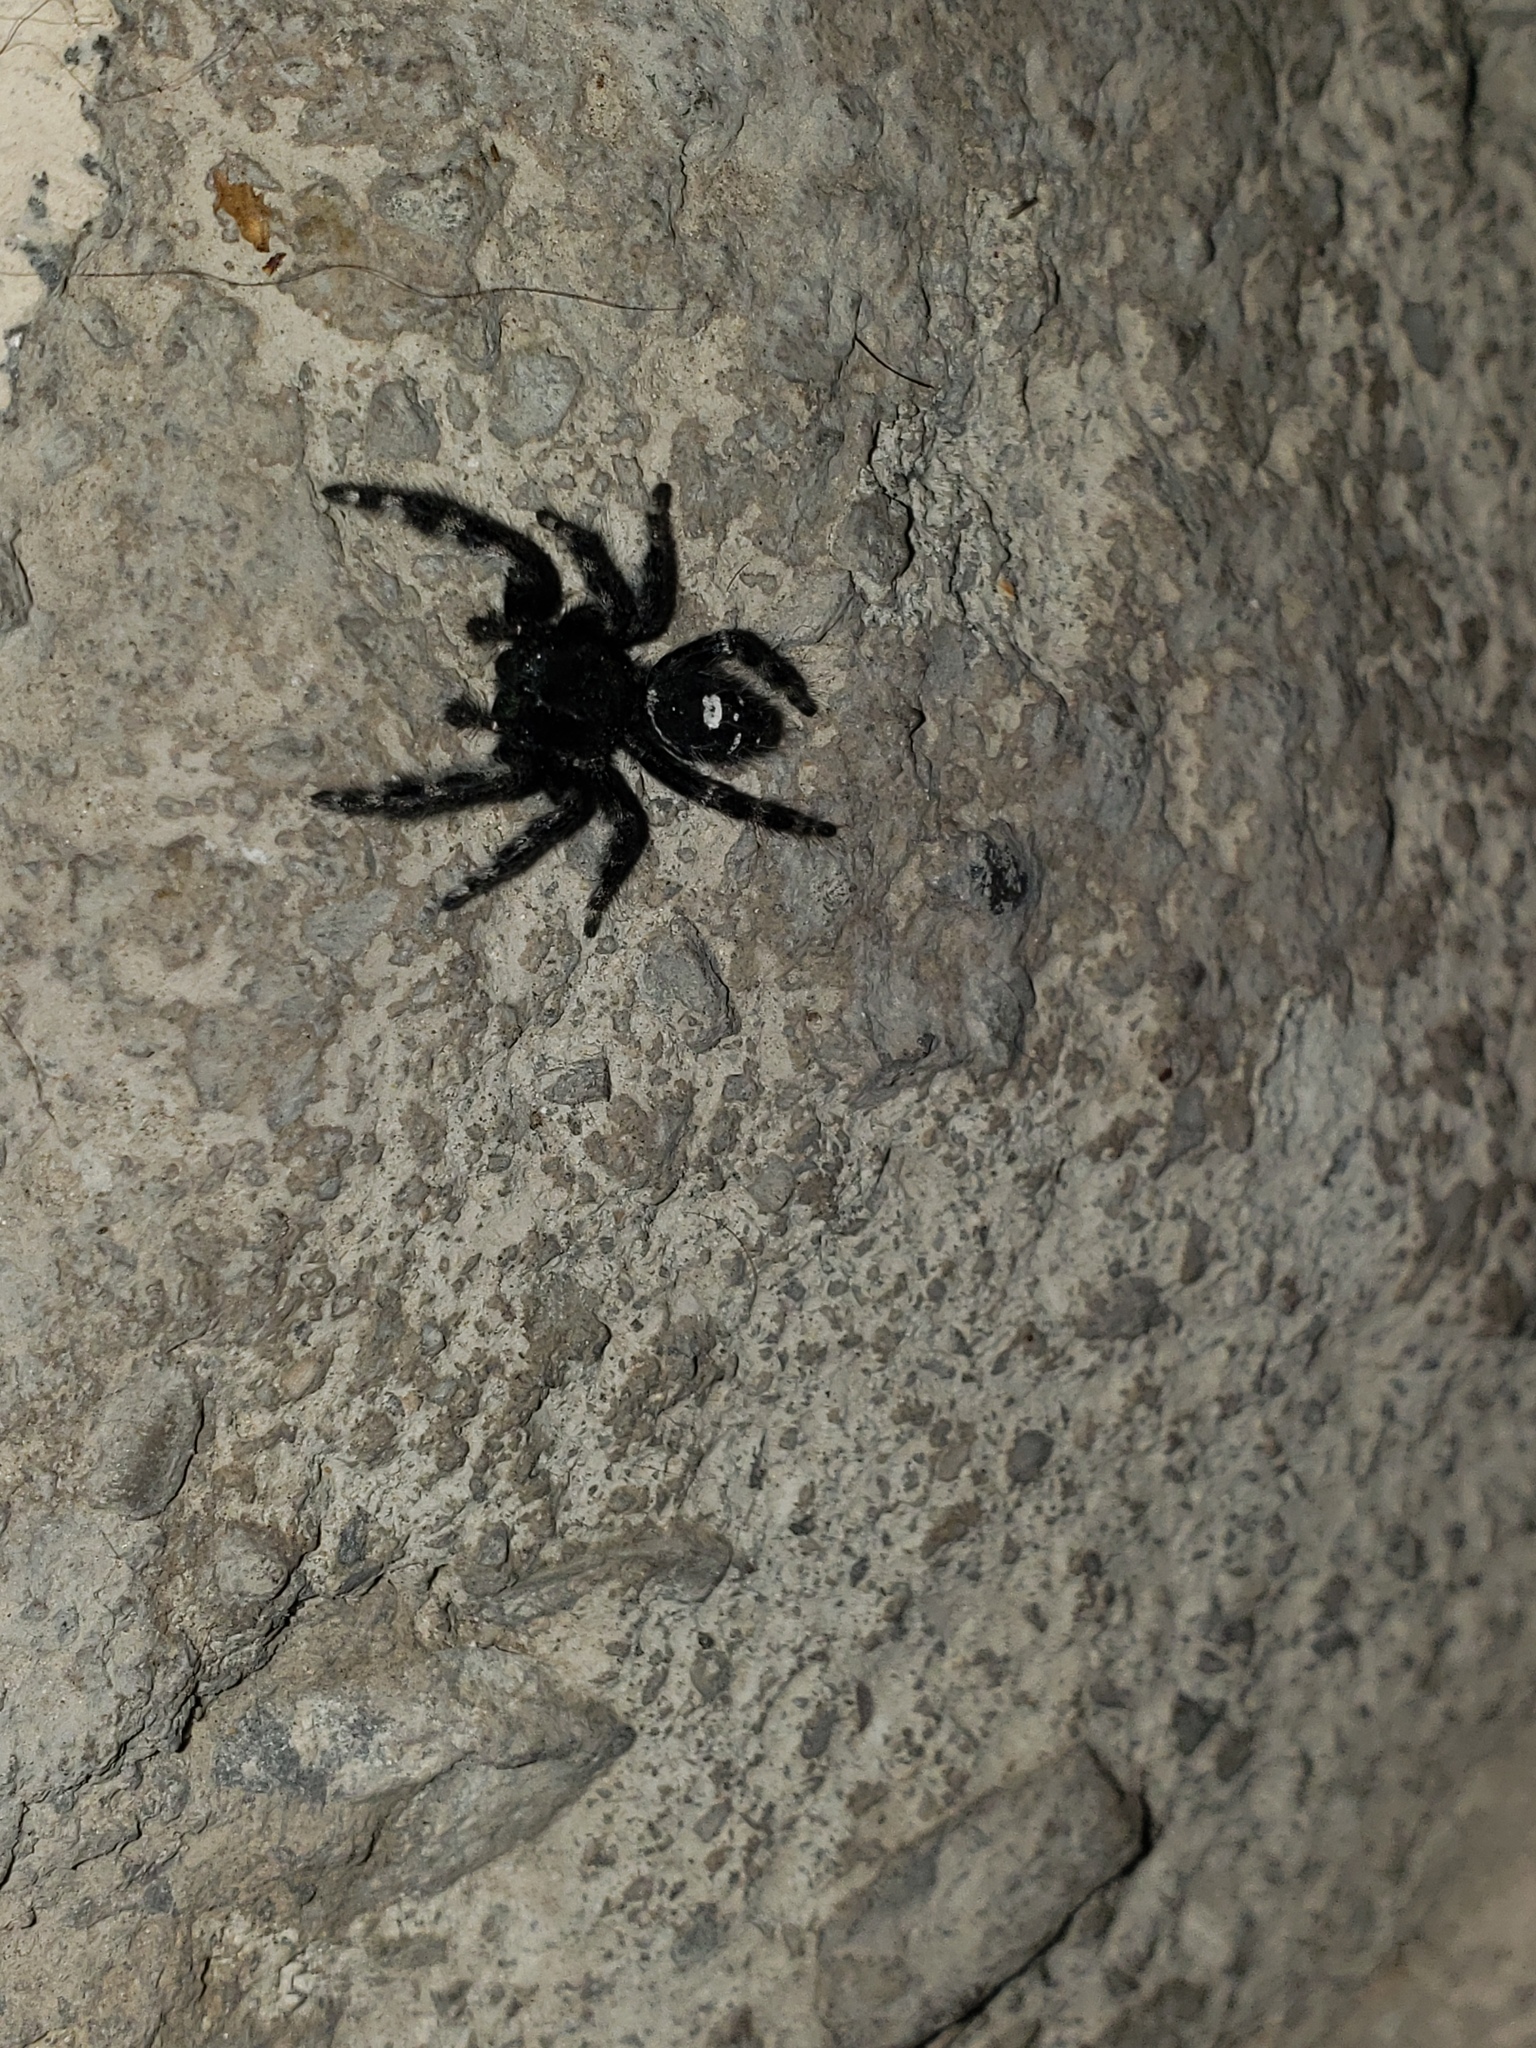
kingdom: Animalia
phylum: Arthropoda
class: Arachnida
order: Araneae
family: Salticidae
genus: Phidippus
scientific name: Phidippus audax
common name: Bold jumper
